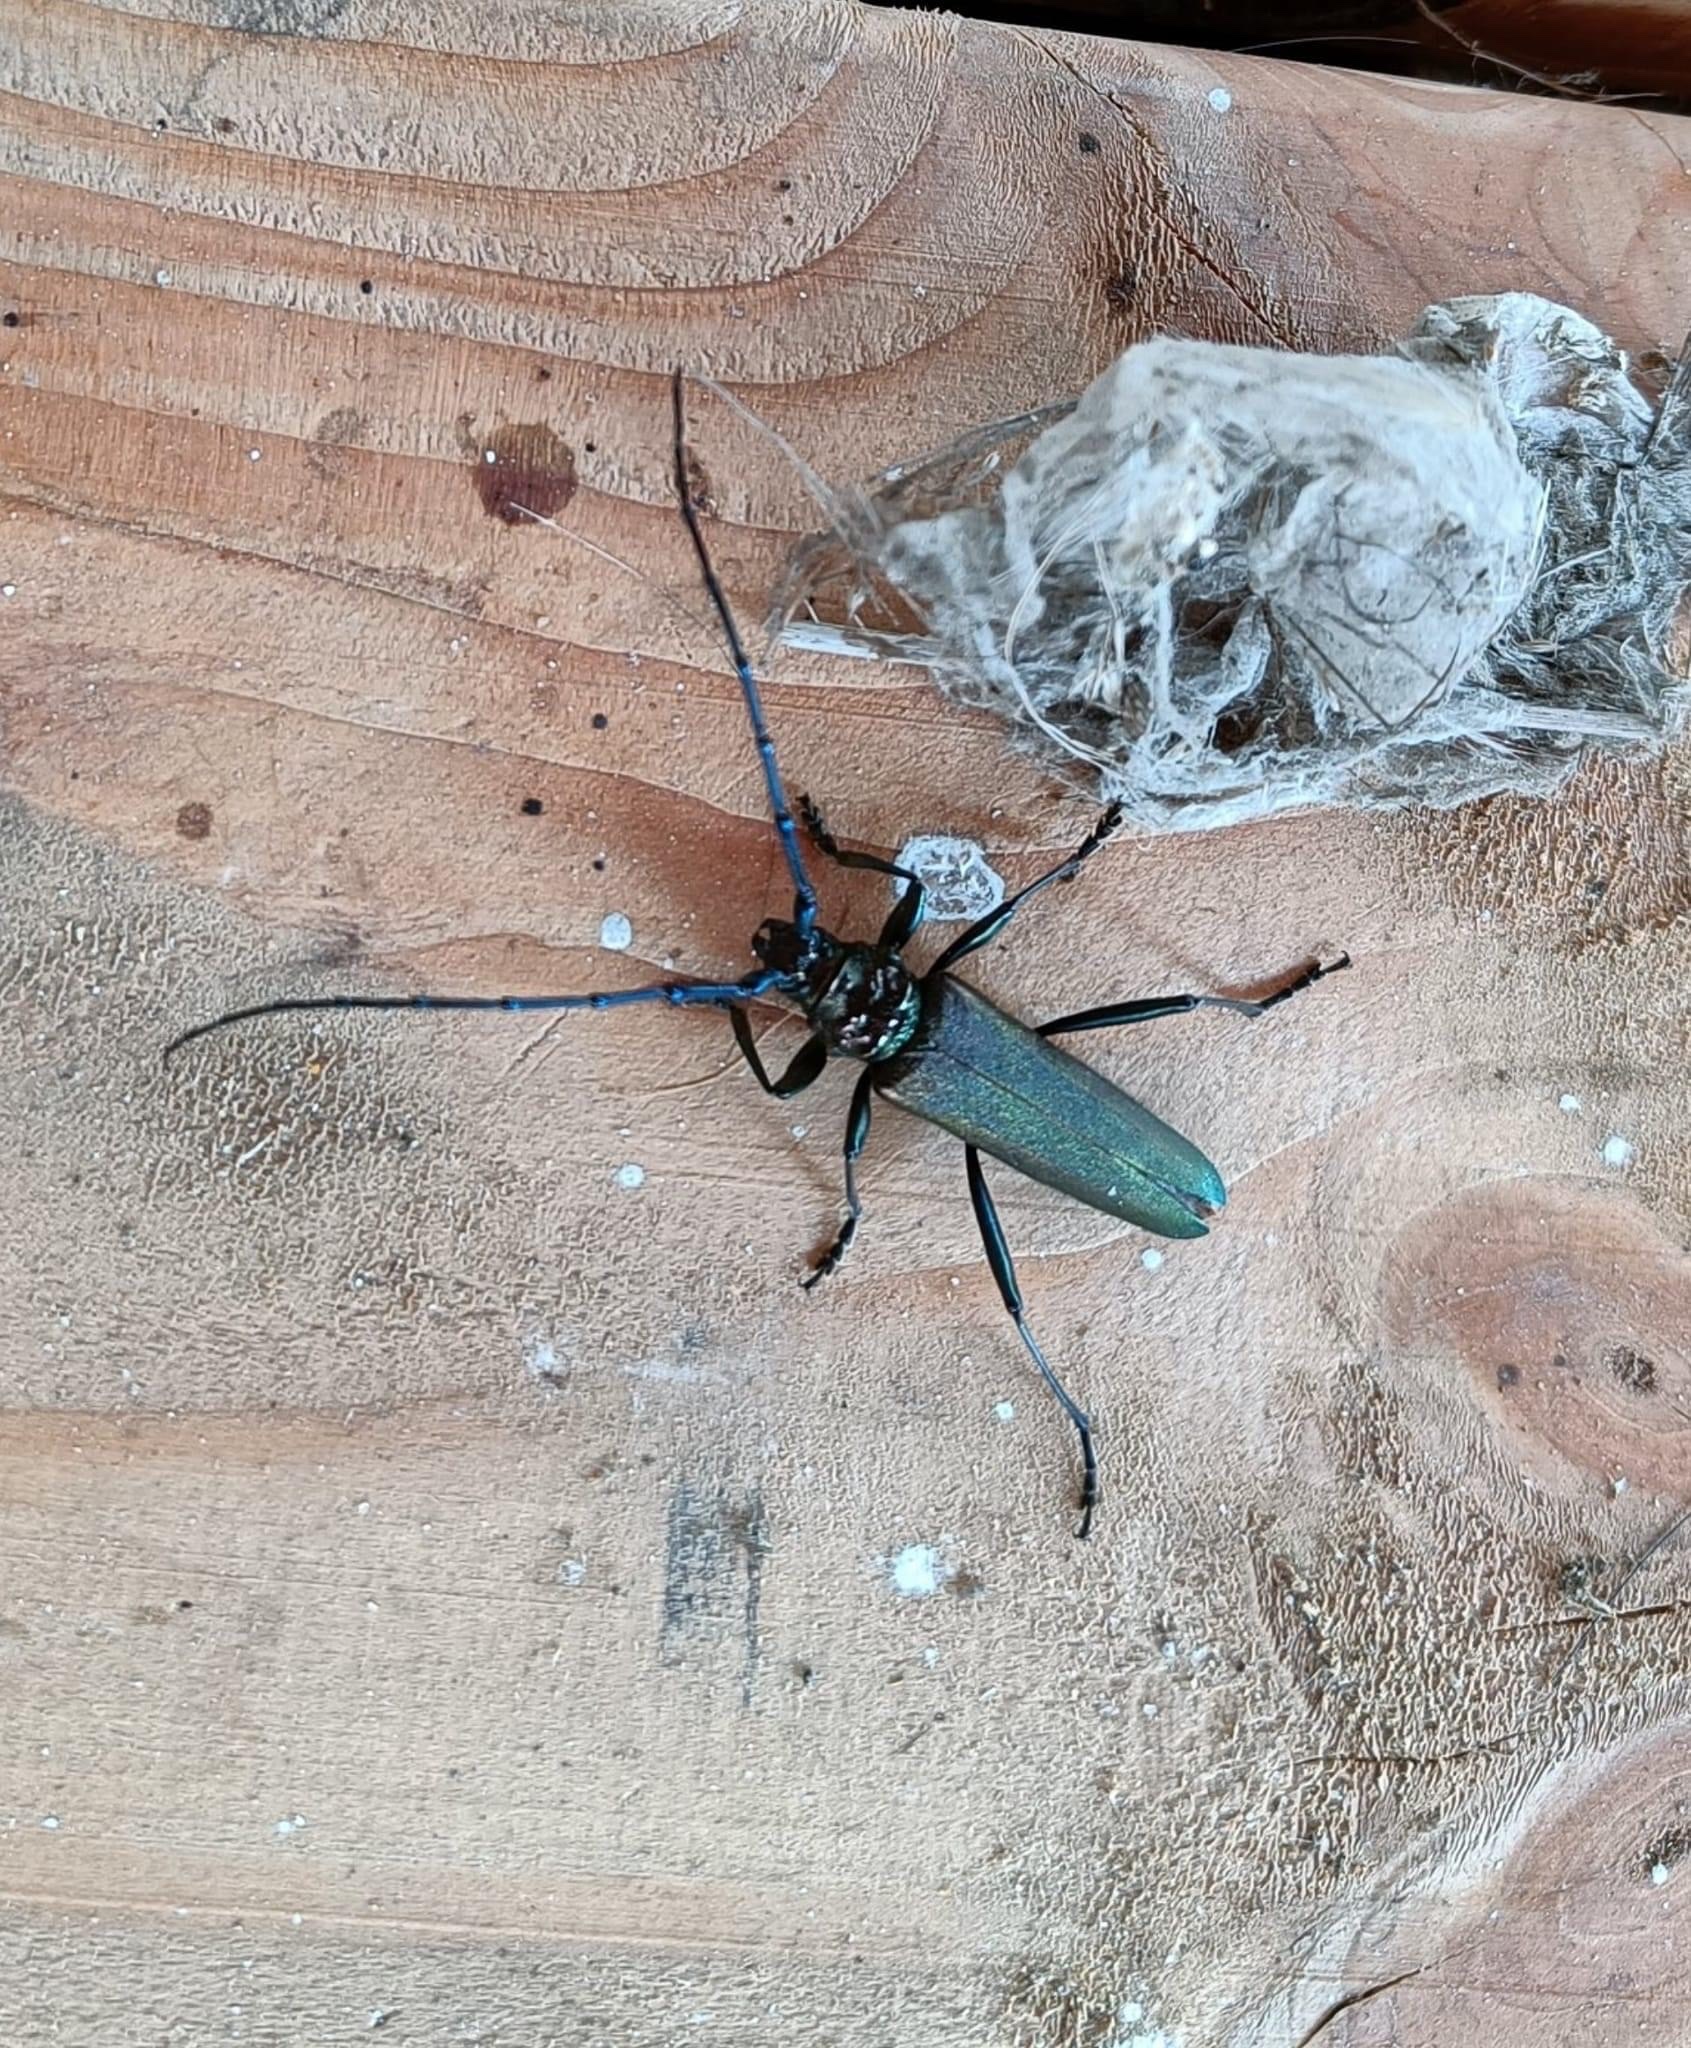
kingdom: Animalia
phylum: Arthropoda
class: Insecta
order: Coleoptera
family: Cerambycidae
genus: Aromia
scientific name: Aromia moschata
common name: Musk beetle
